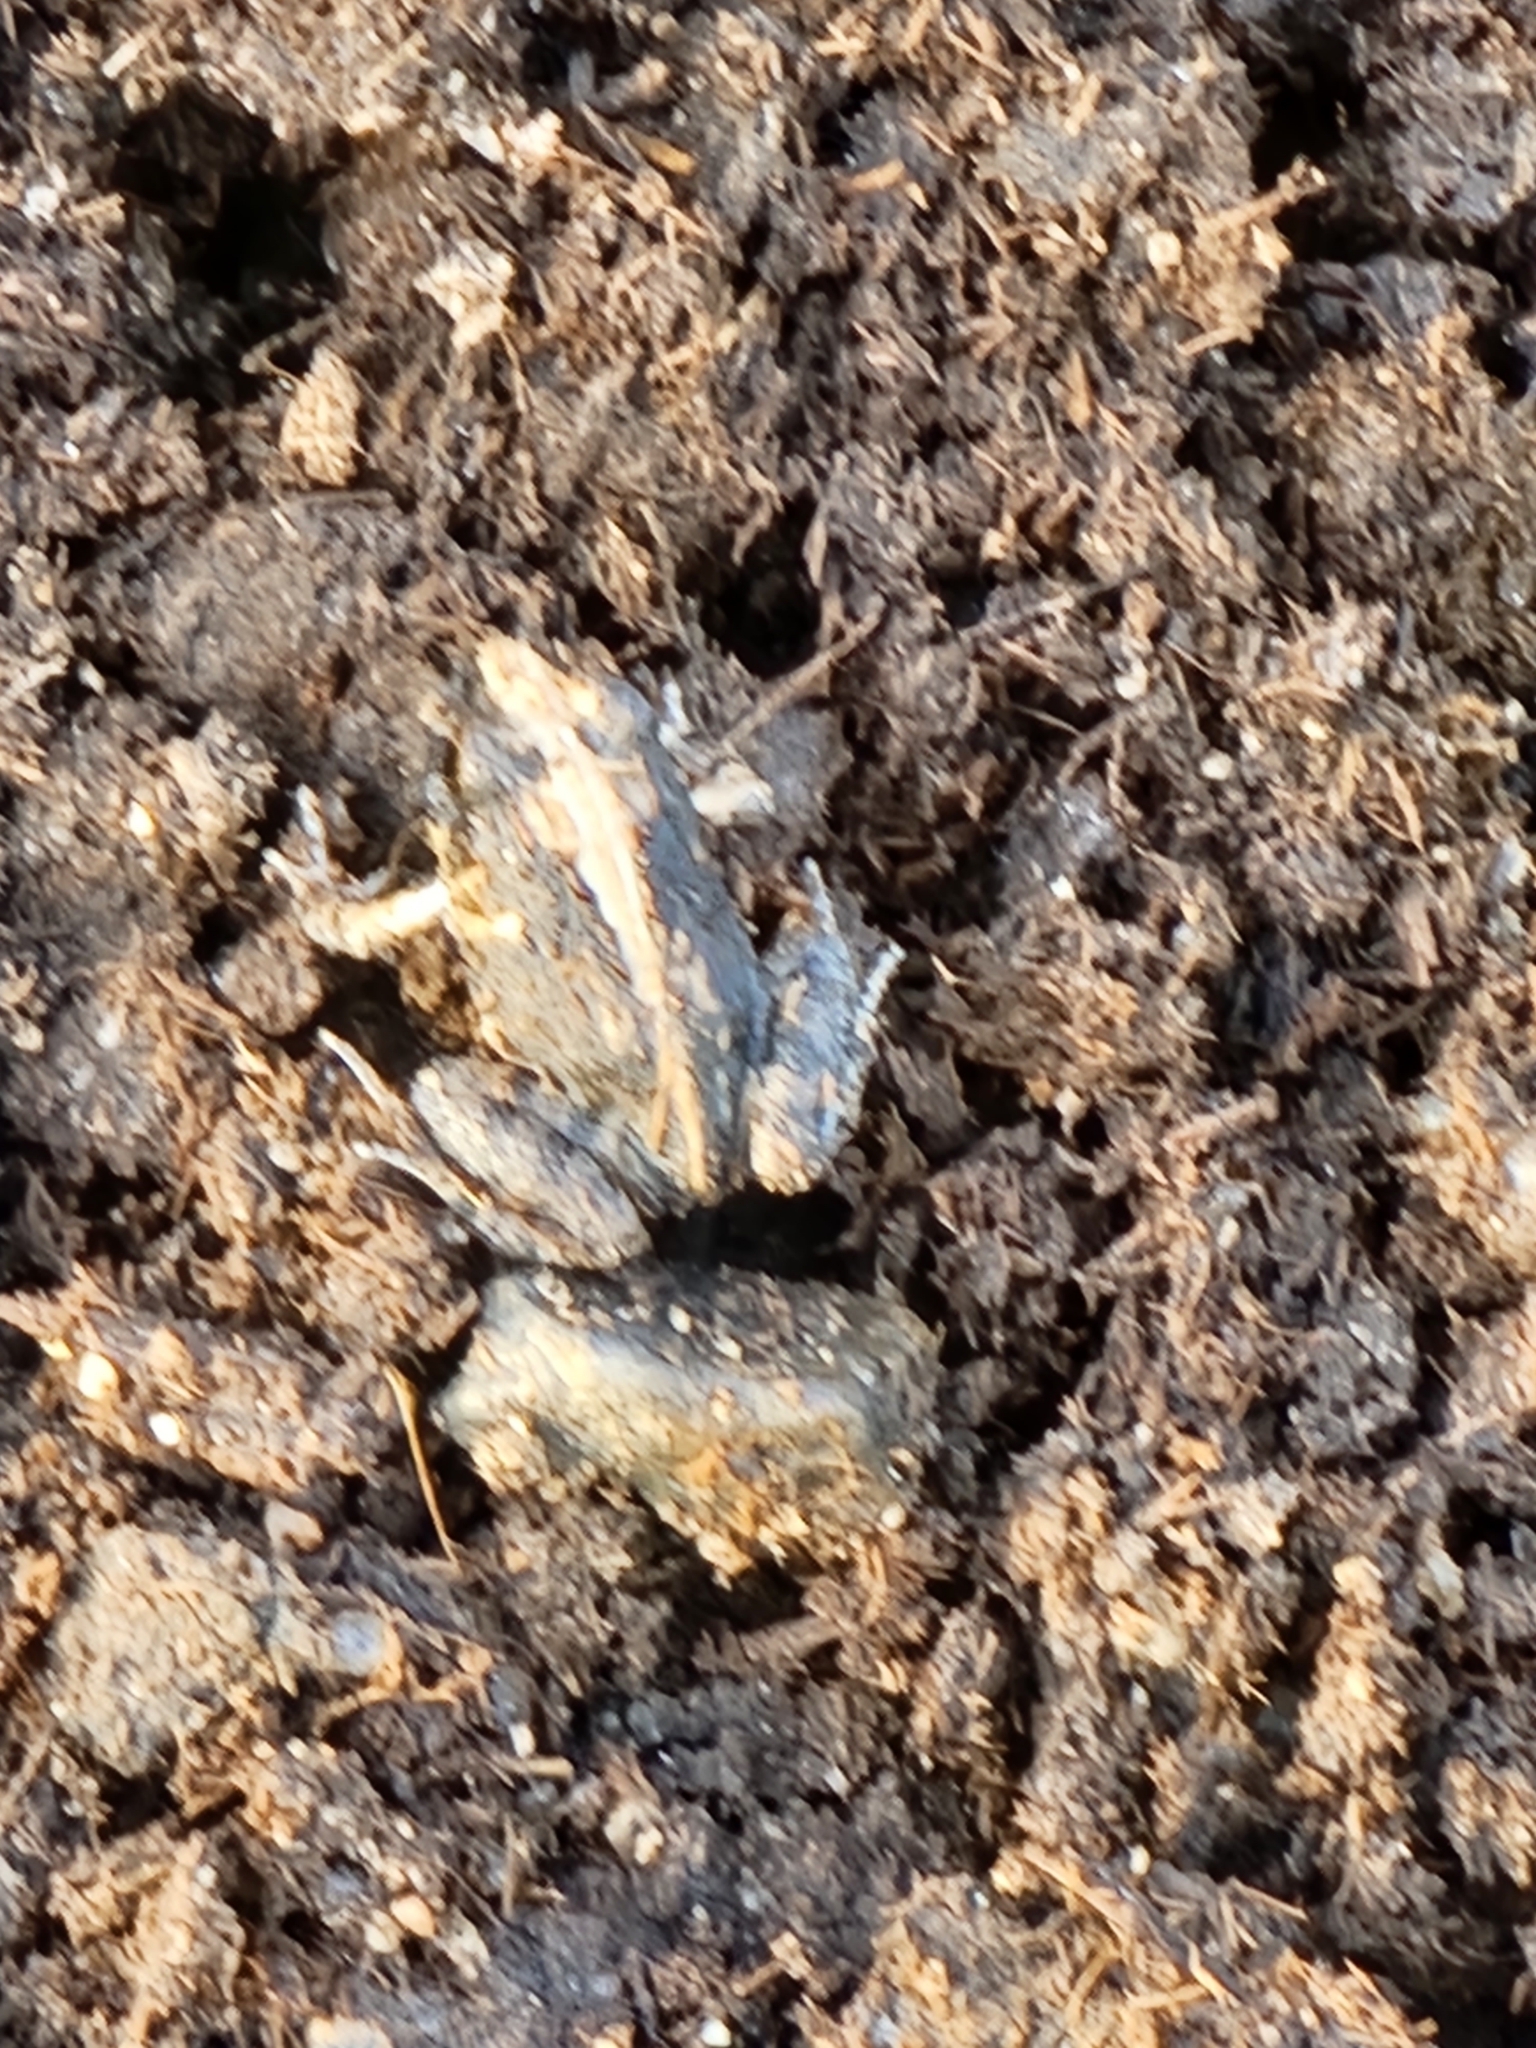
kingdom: Animalia
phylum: Chordata
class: Amphibia
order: Anura
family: Limnodynastidae
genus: Platyplectrum
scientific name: Platyplectrum ornatum
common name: Ornate burrowing frog
